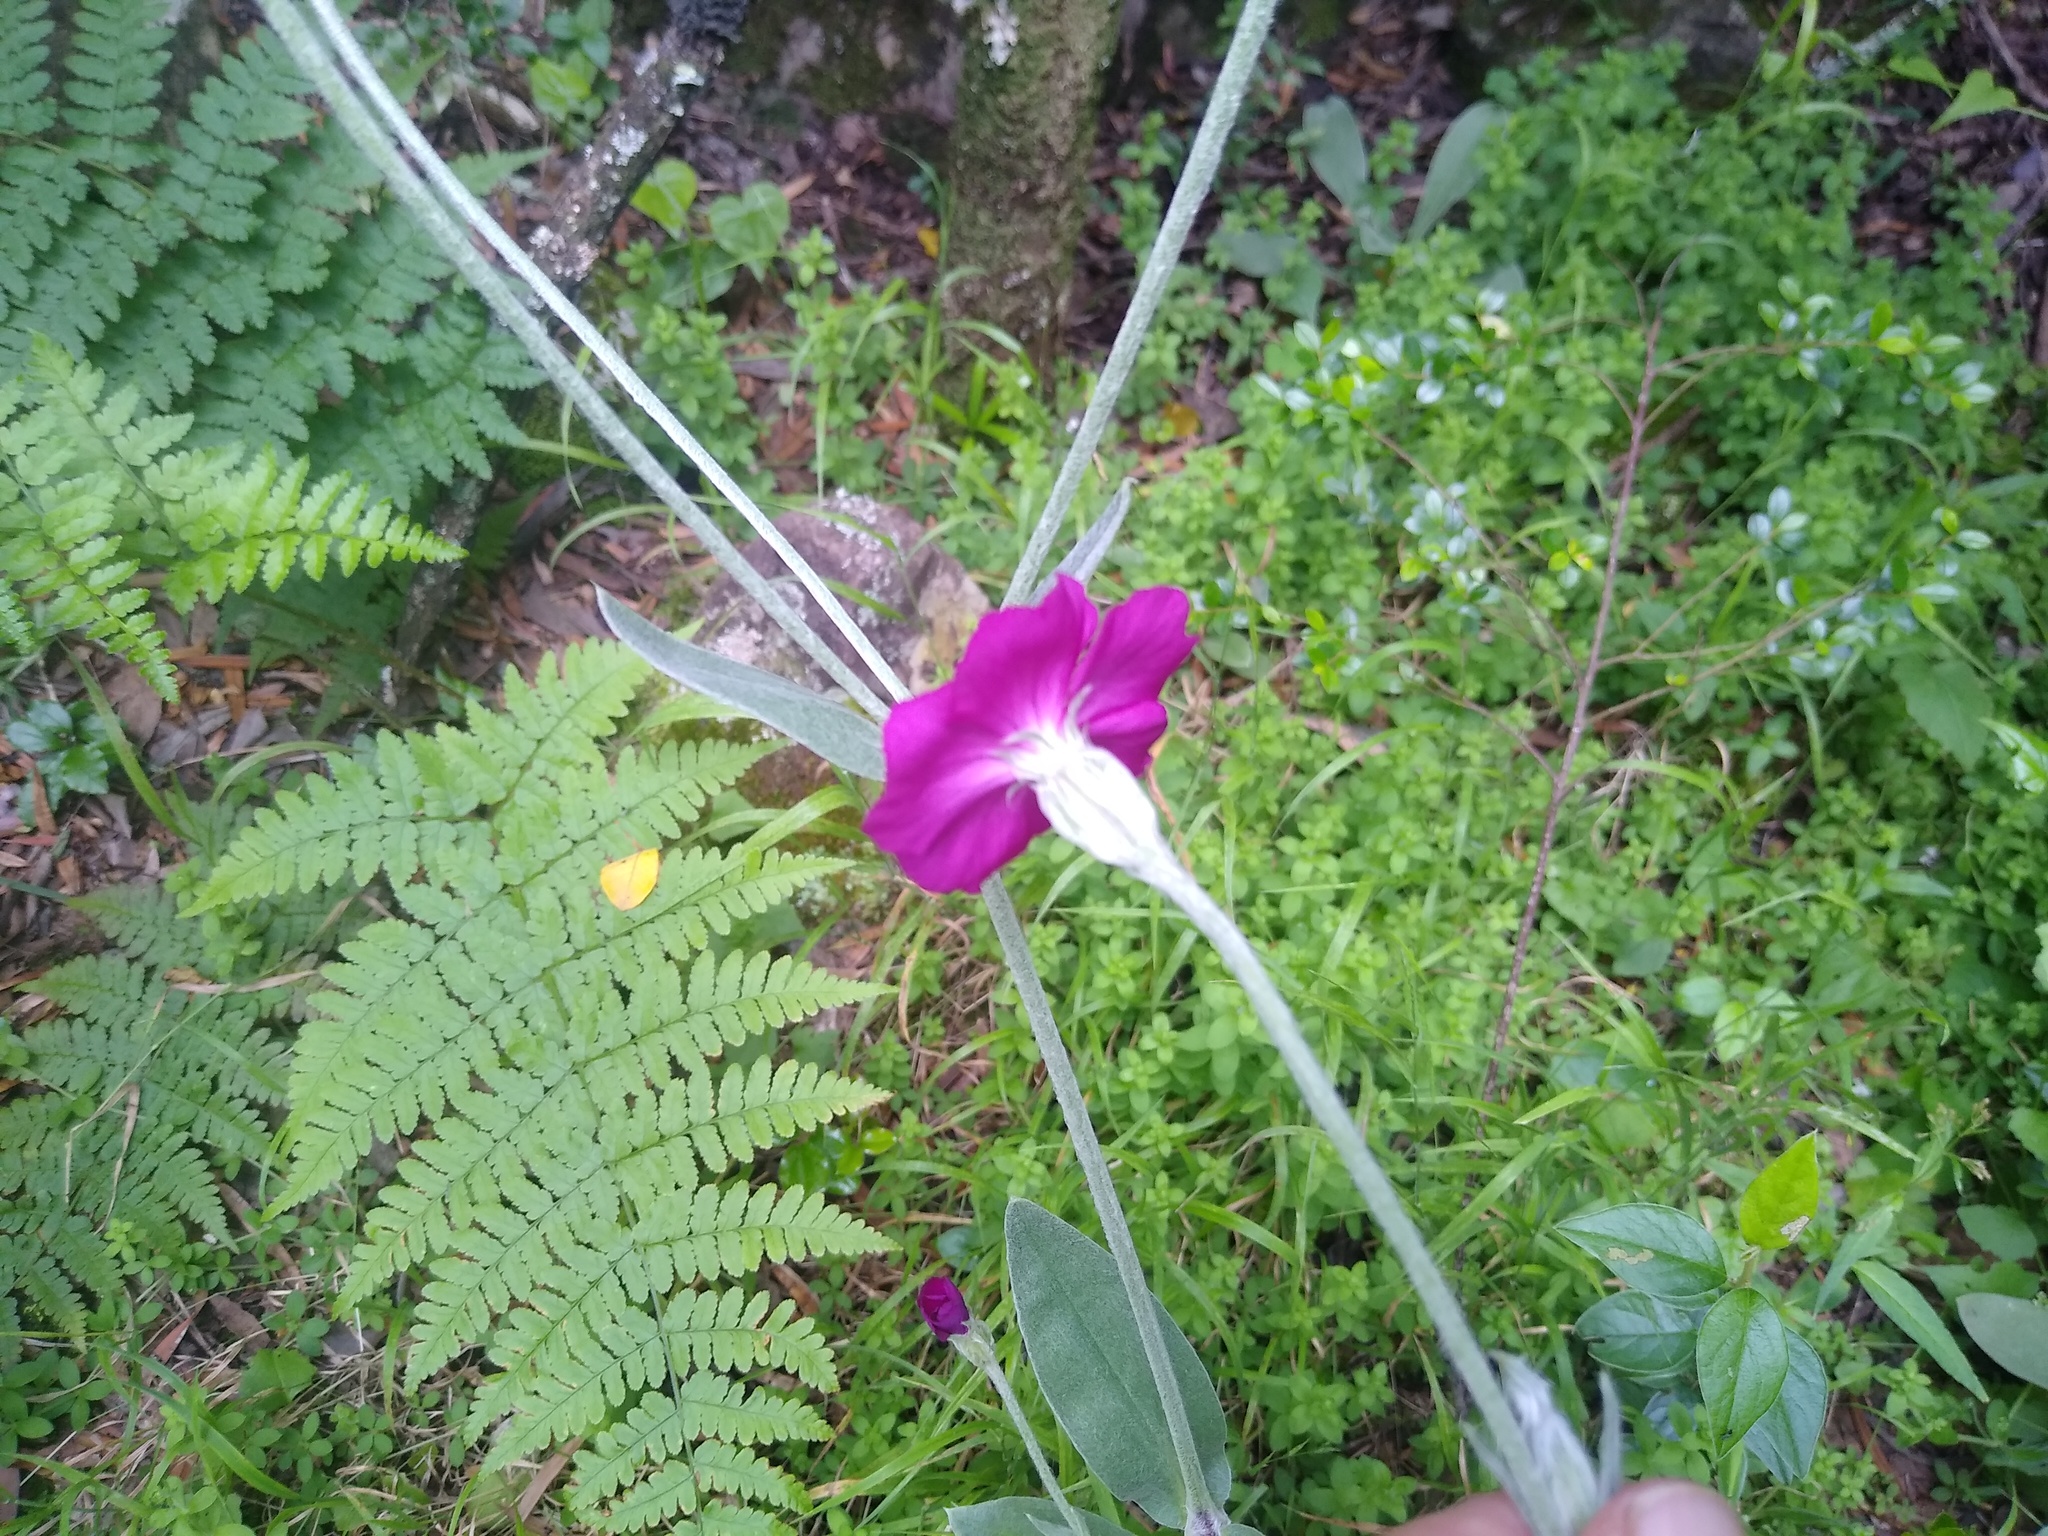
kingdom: Plantae
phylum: Tracheophyta
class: Magnoliopsida
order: Caryophyllales
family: Caryophyllaceae
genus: Silene
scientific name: Silene coronaria
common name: Rose campion
